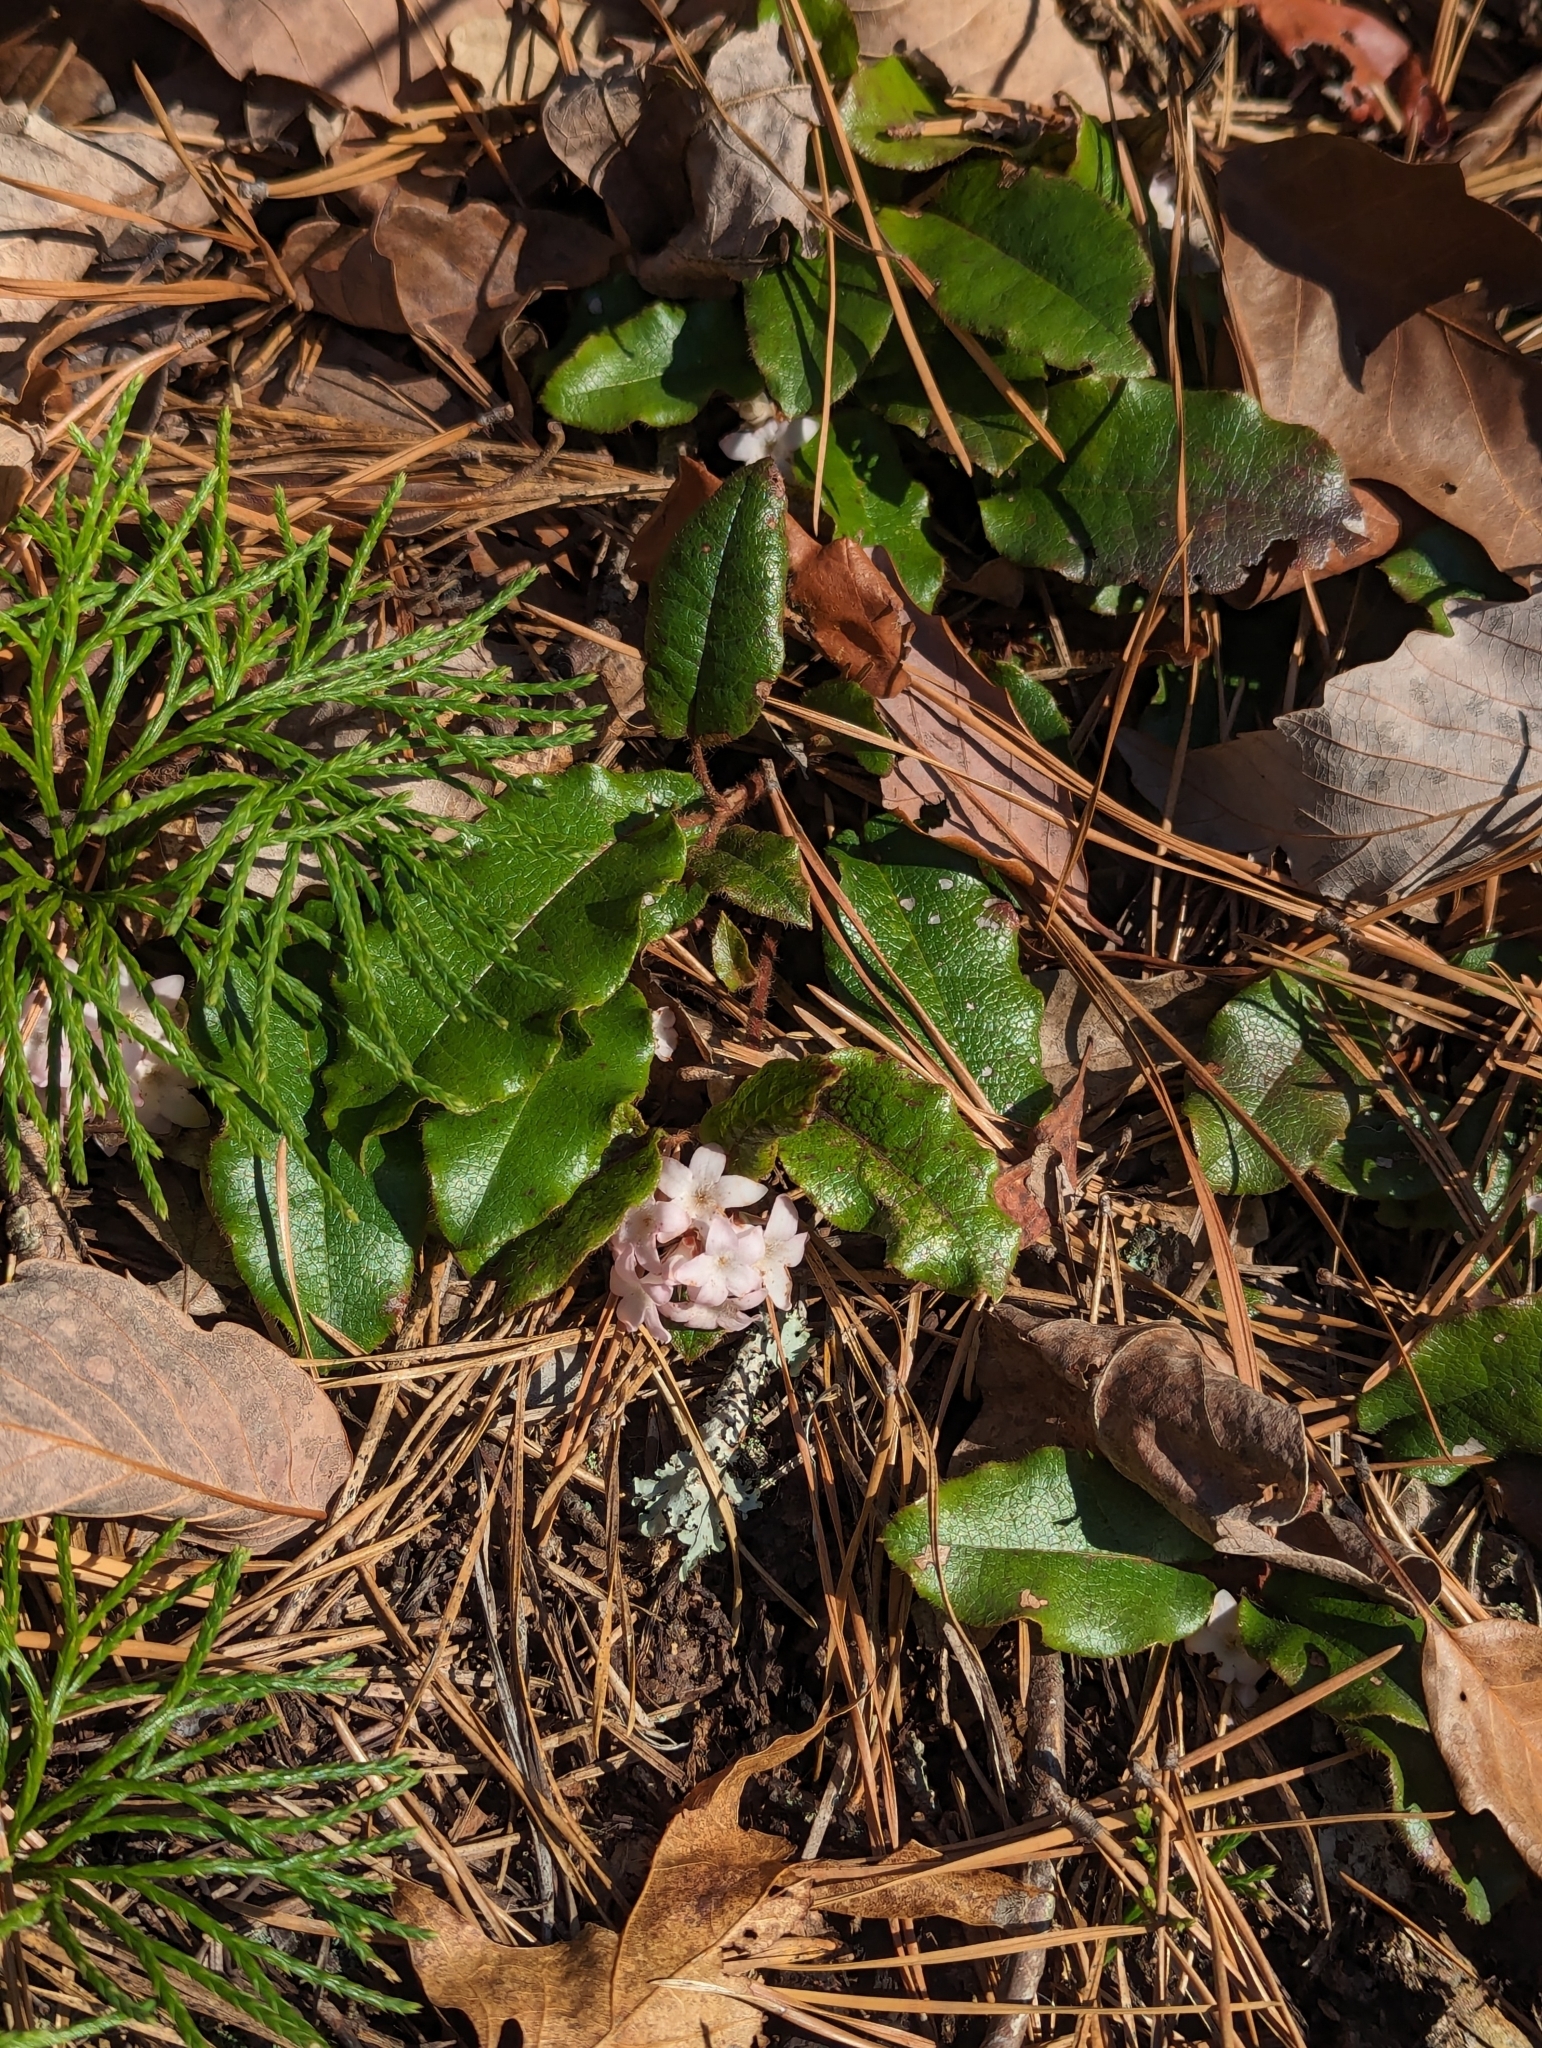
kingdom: Plantae
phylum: Tracheophyta
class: Magnoliopsida
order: Ericales
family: Ericaceae
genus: Epigaea
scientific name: Epigaea repens
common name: Gravelroot
